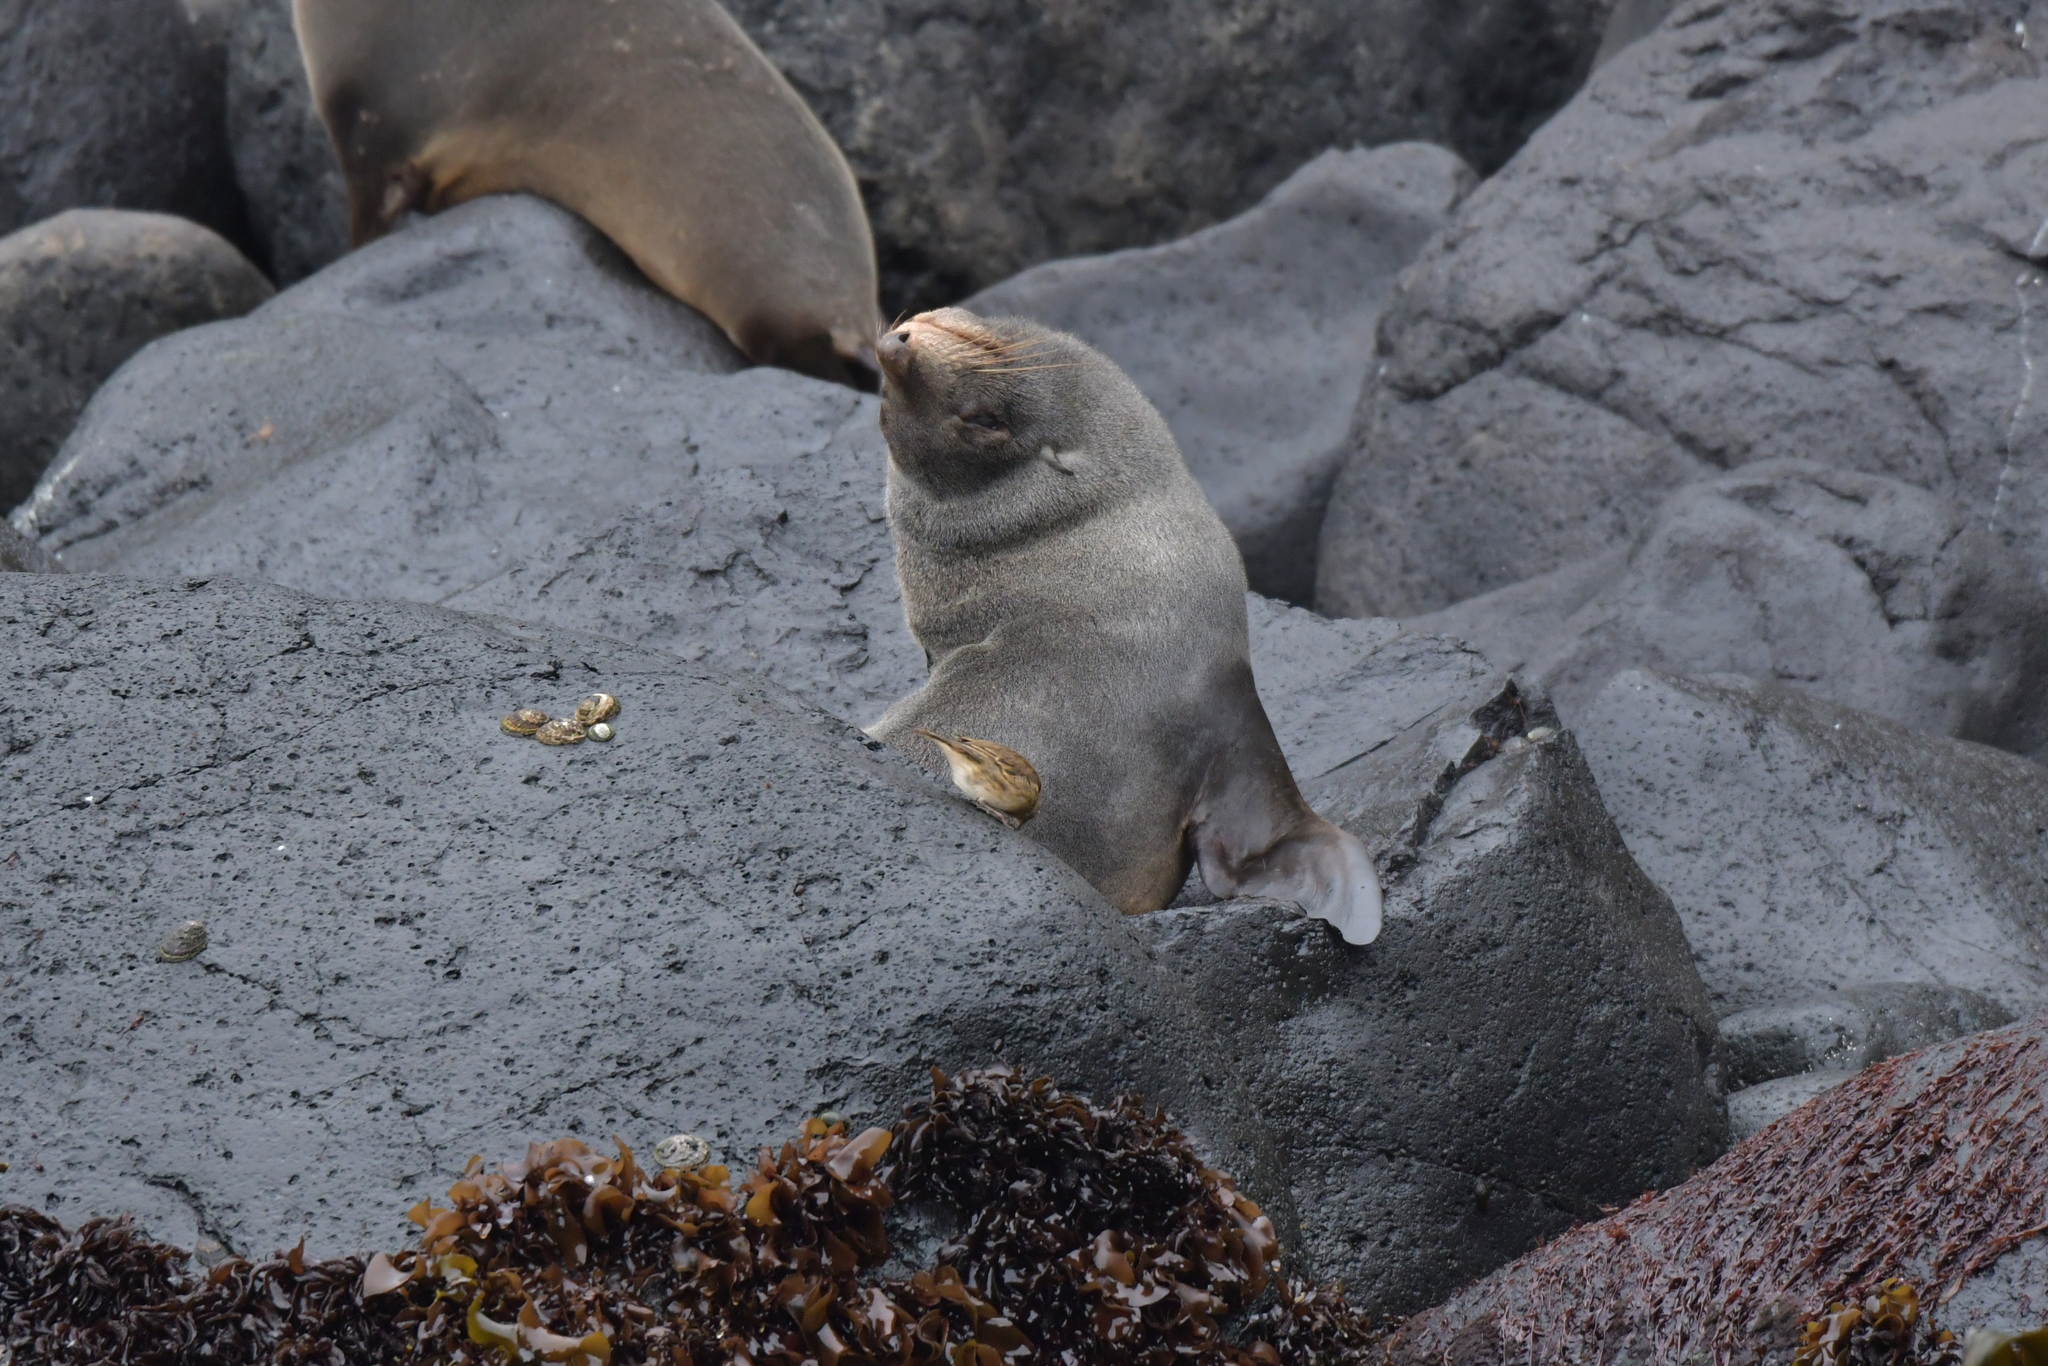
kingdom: Animalia
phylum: Chordata
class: Aves
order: Passeriformes
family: Motacillidae
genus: Anthus
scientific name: Anthus novaeseelandiae
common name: New zealand pipit
